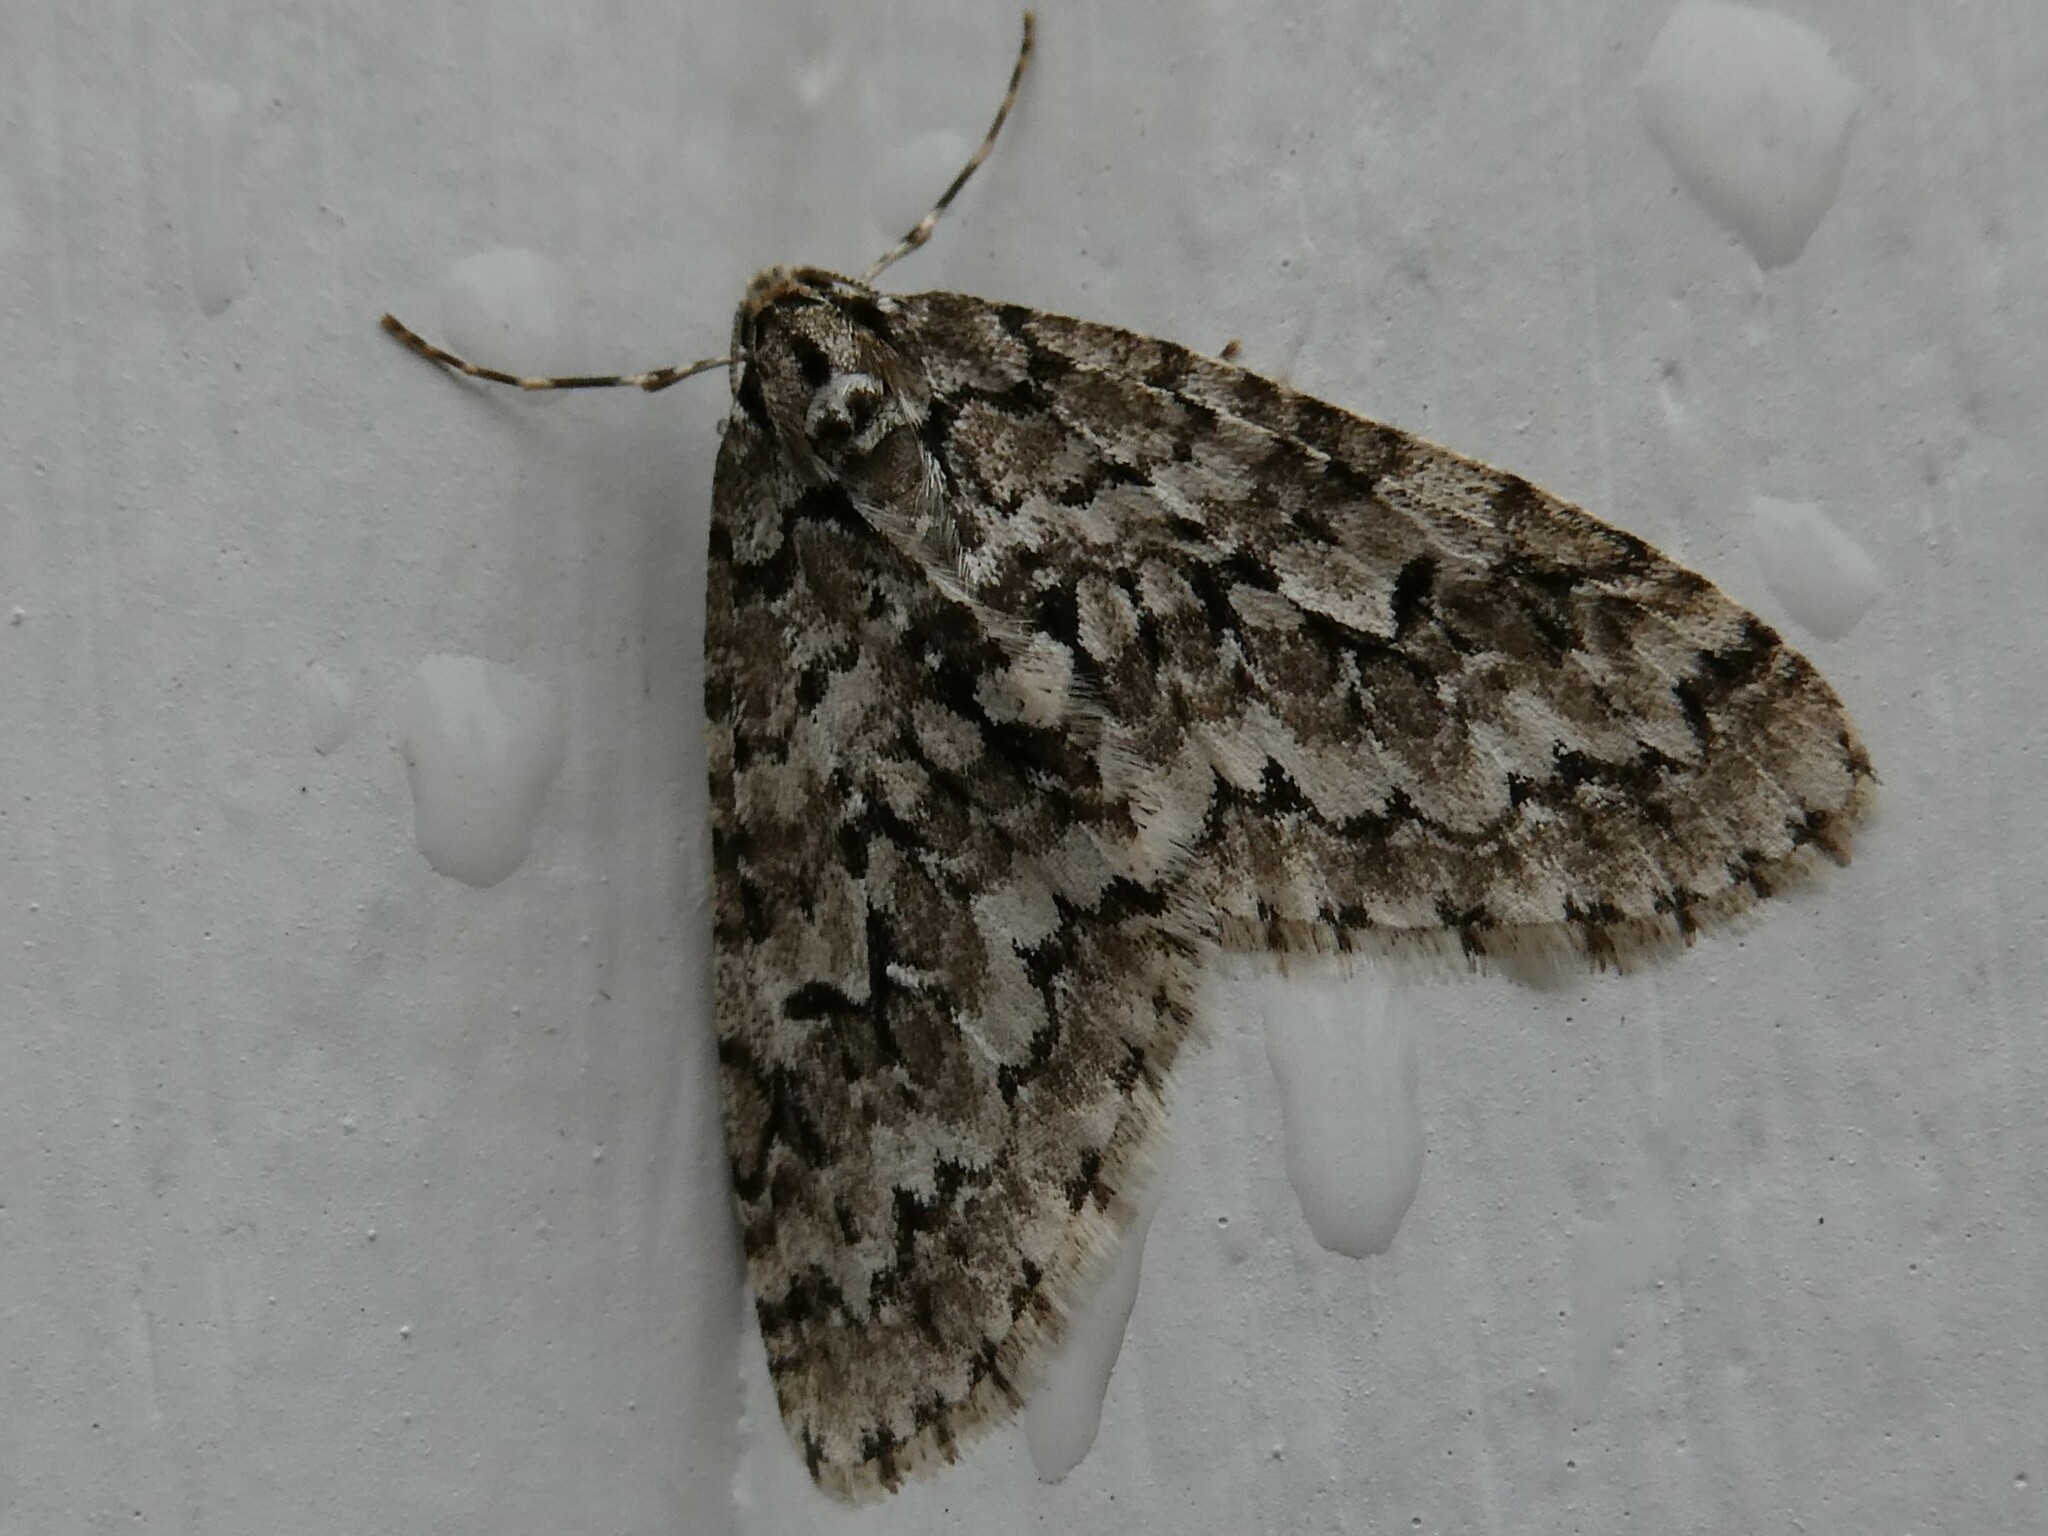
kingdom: Animalia
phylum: Arthropoda
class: Insecta
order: Lepidoptera
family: Geometridae
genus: Cladara
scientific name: Cladara atroliturata
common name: Scribbler
